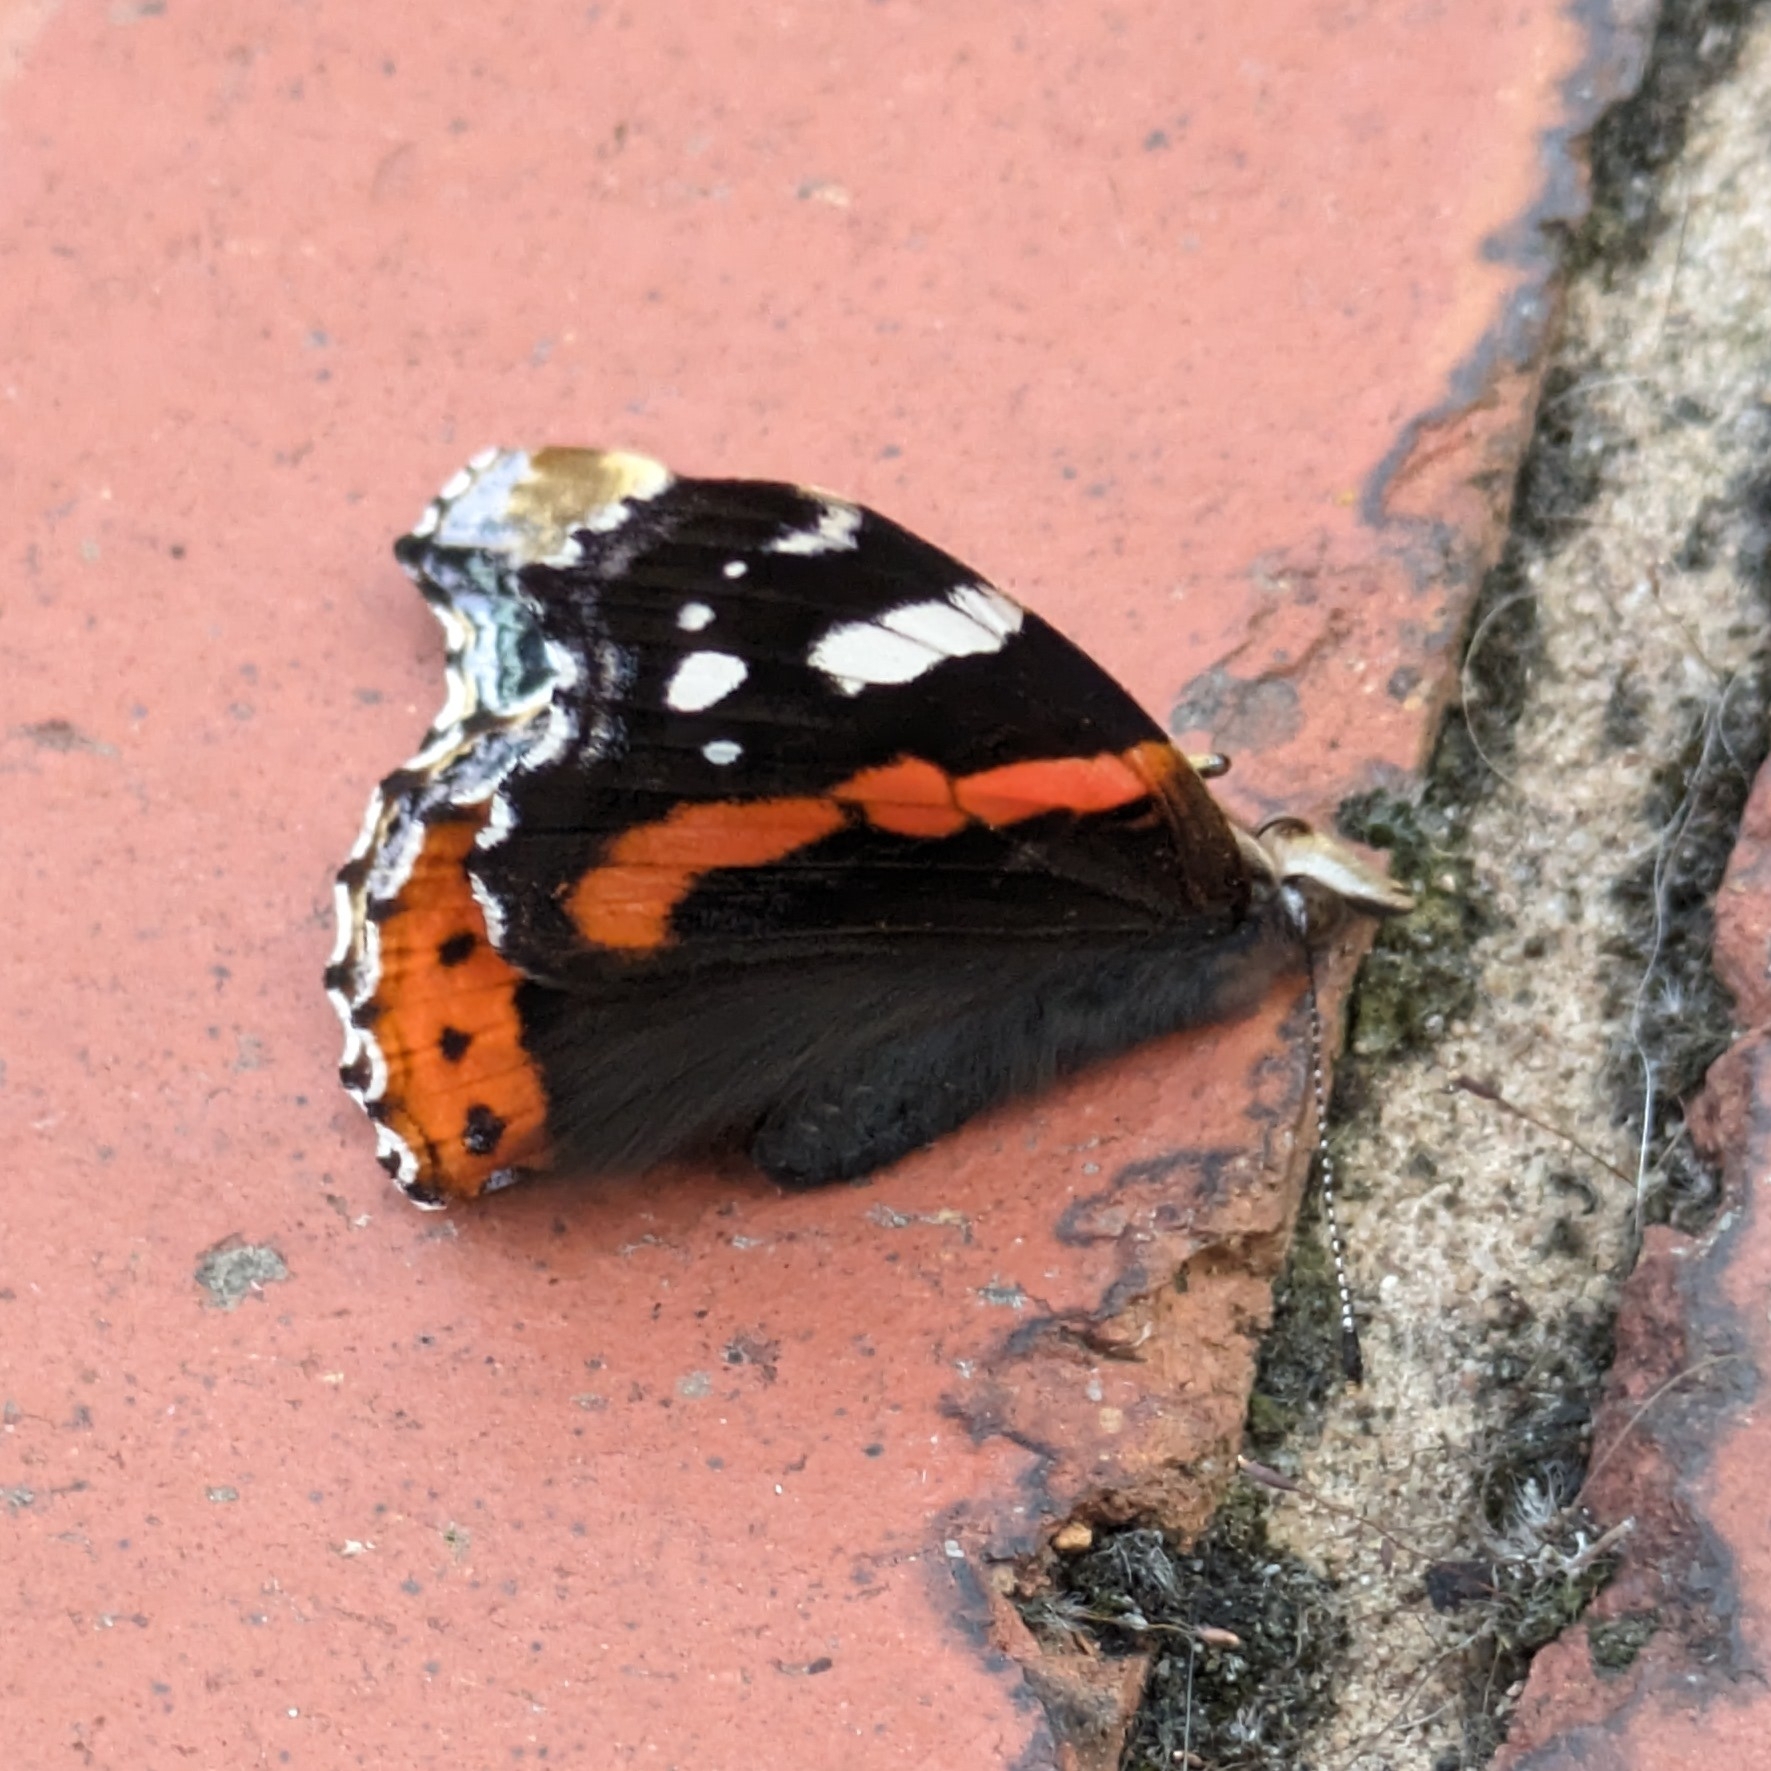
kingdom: Animalia
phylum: Arthropoda
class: Insecta
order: Lepidoptera
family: Nymphalidae
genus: Vanessa
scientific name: Vanessa atalanta
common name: Red admiral
